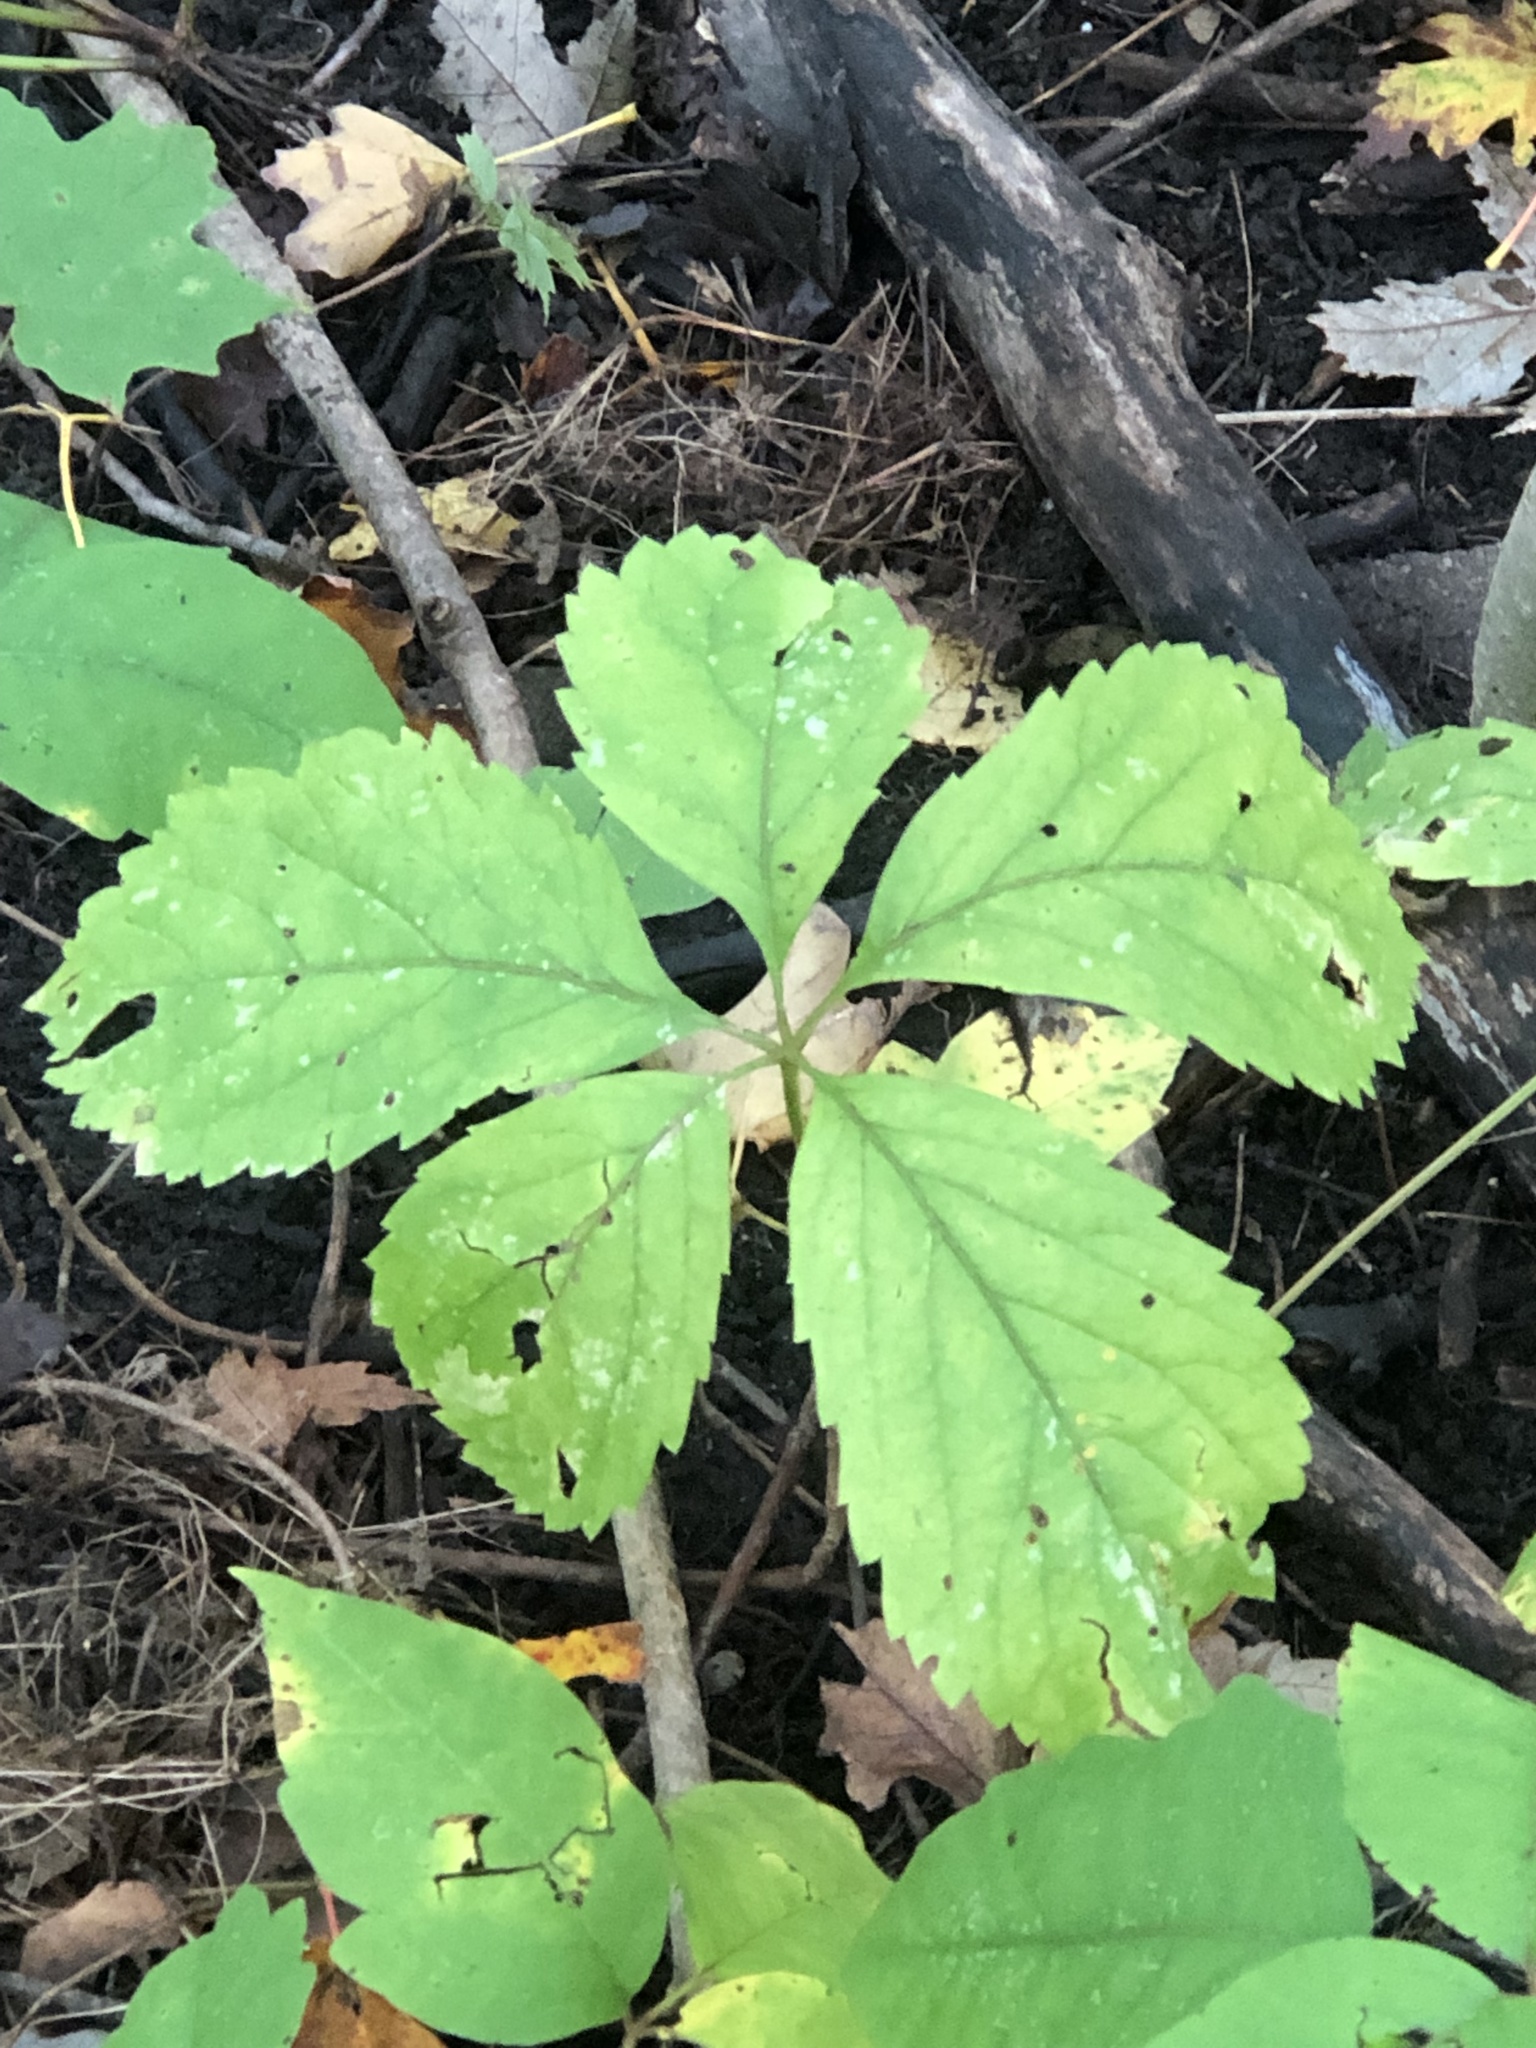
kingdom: Plantae
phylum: Tracheophyta
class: Magnoliopsida
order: Vitales
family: Vitaceae
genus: Parthenocissus
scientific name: Parthenocissus inserta
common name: False virginia-creeper
